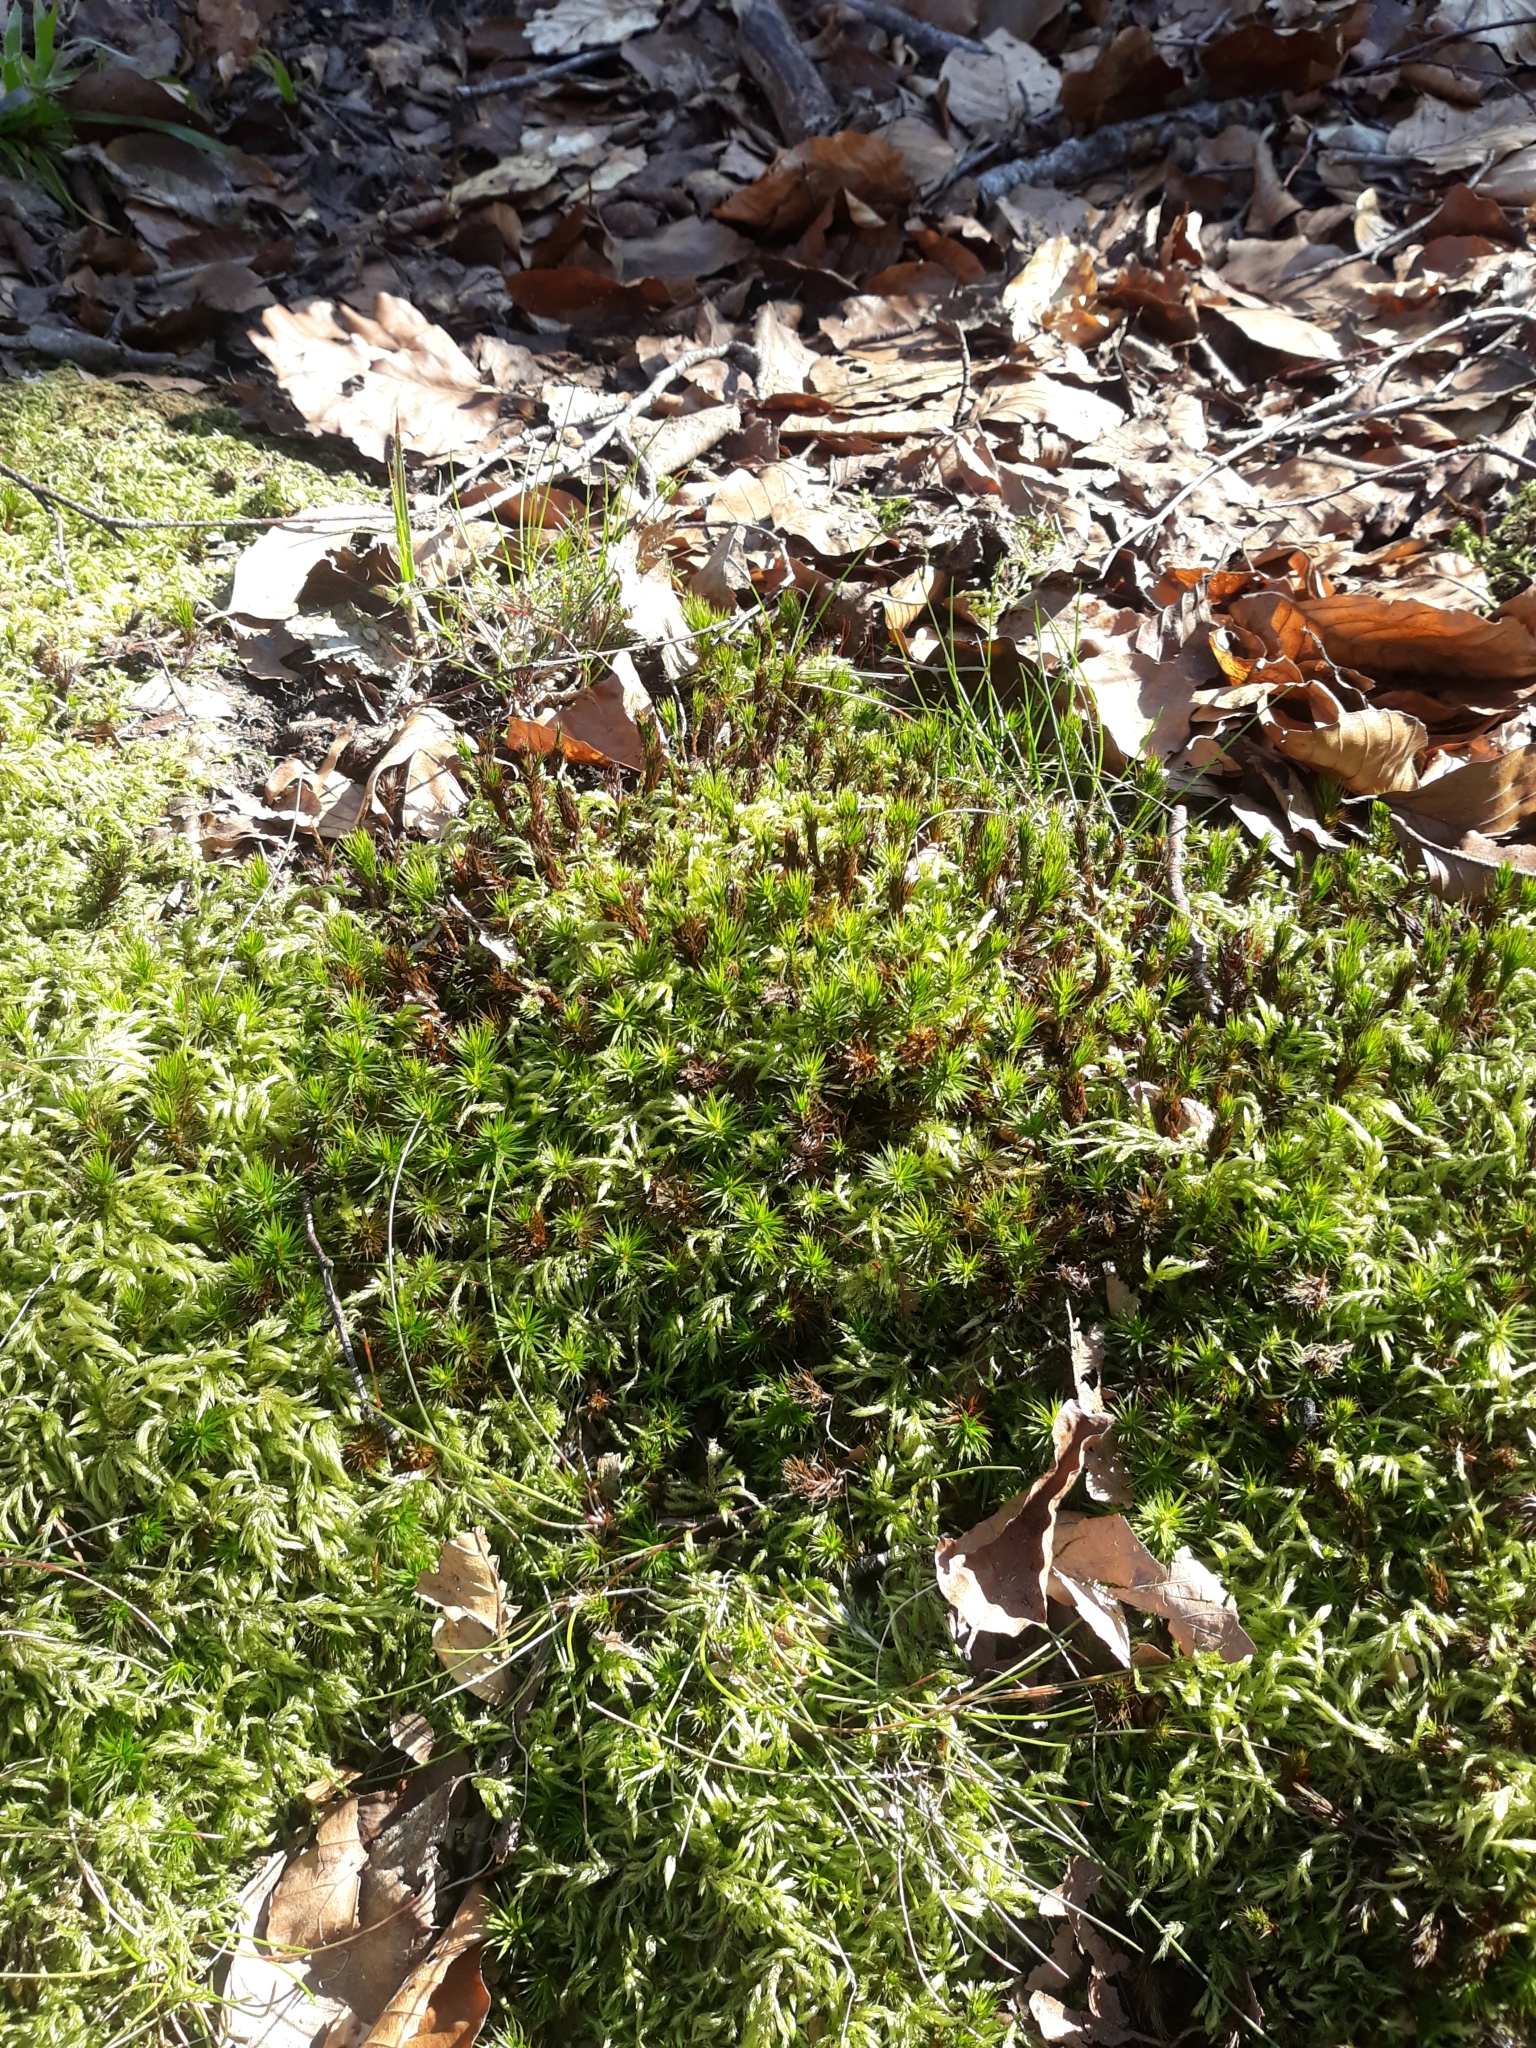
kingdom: Plantae
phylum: Bryophyta
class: Polytrichopsida
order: Polytrichales
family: Polytrichaceae
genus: Polytrichum
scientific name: Polytrichum formosum
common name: Bank haircap moss
